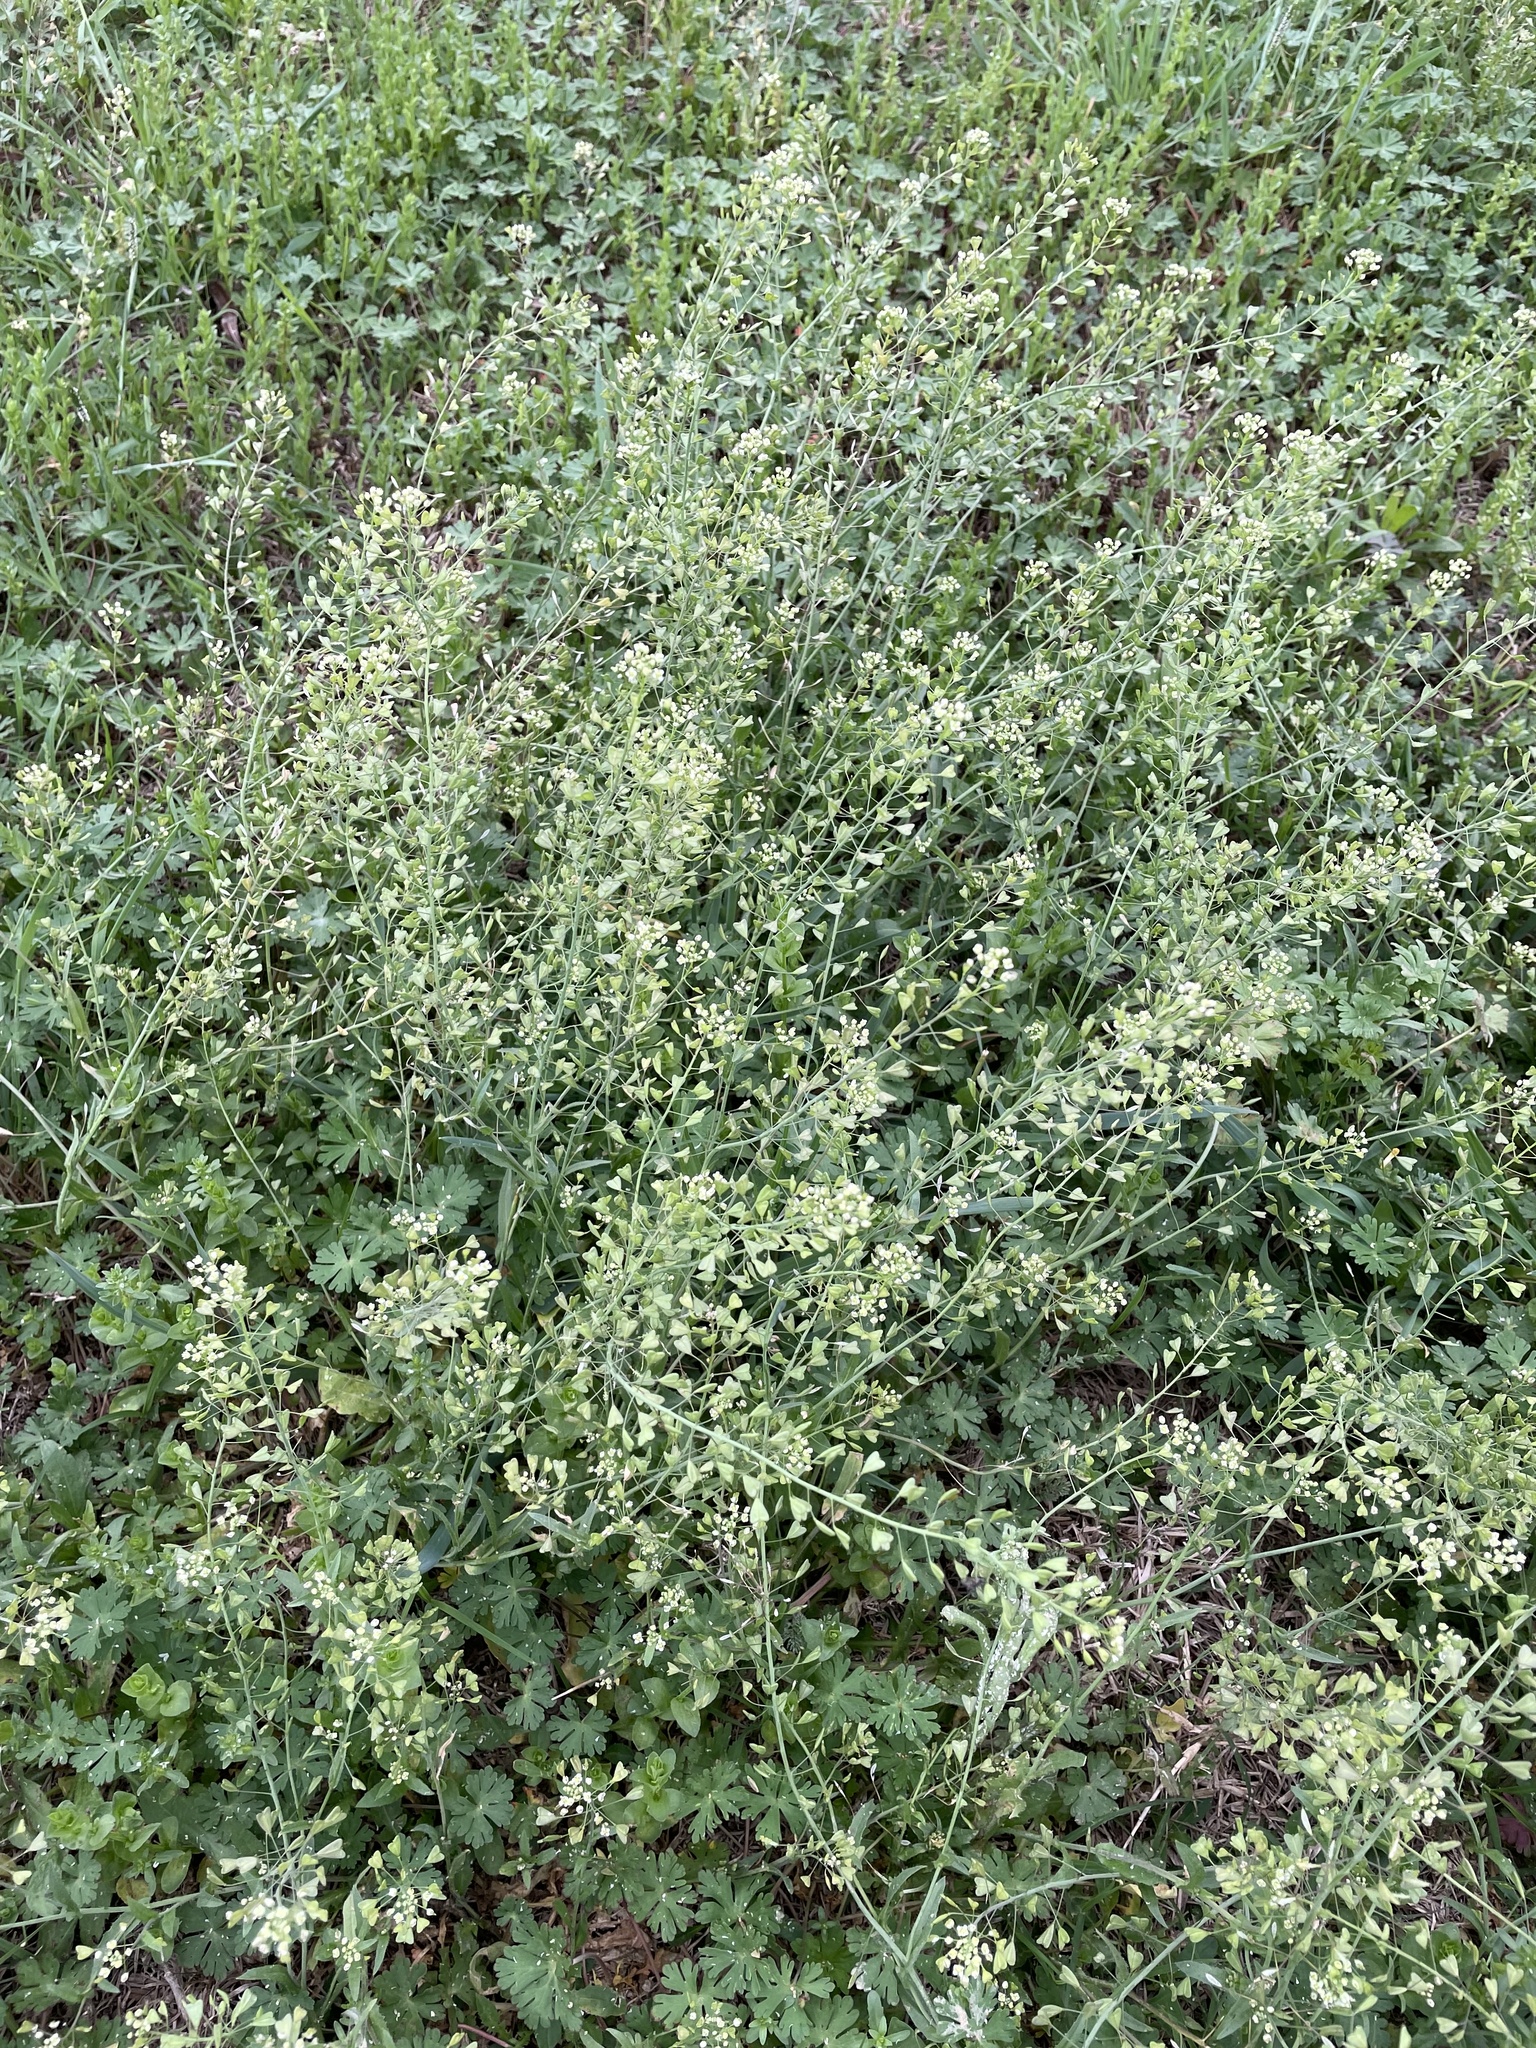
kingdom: Plantae
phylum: Tracheophyta
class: Magnoliopsida
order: Brassicales
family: Brassicaceae
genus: Capsella
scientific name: Capsella bursa-pastoris
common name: Shepherd's purse
